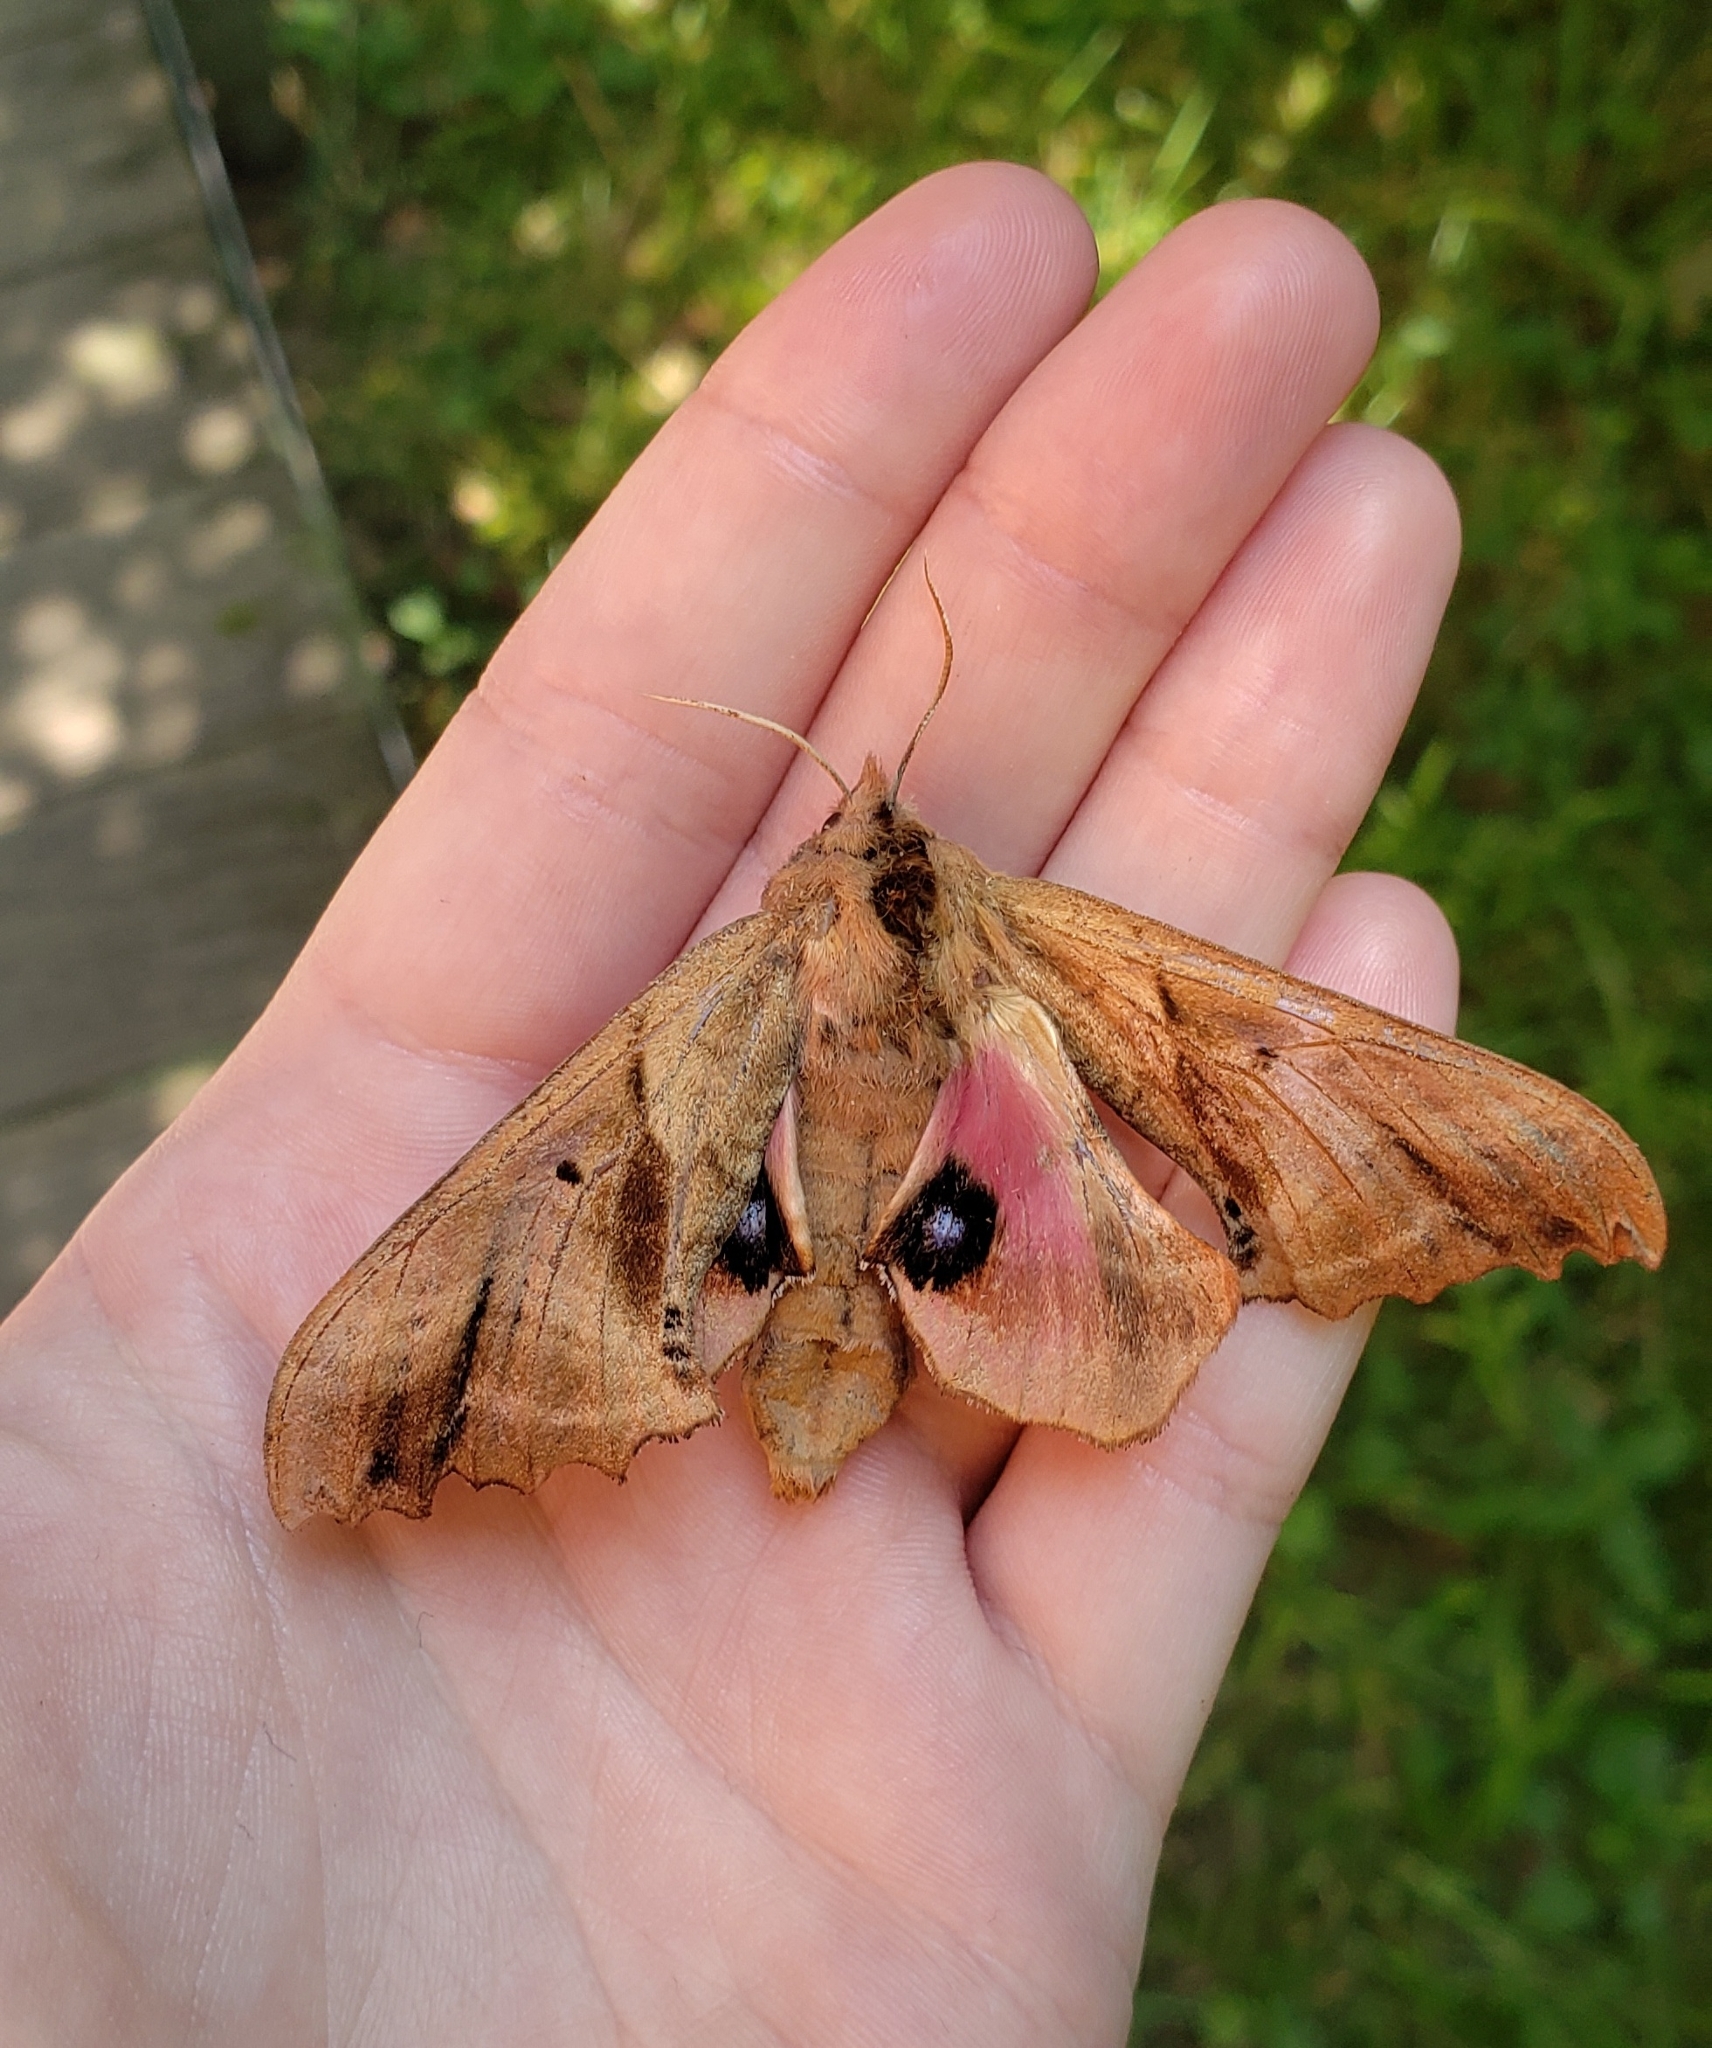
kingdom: Animalia
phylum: Arthropoda
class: Insecta
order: Lepidoptera
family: Sphingidae
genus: Paonias
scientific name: Paonias excaecata
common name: Blind-eyed sphinx
